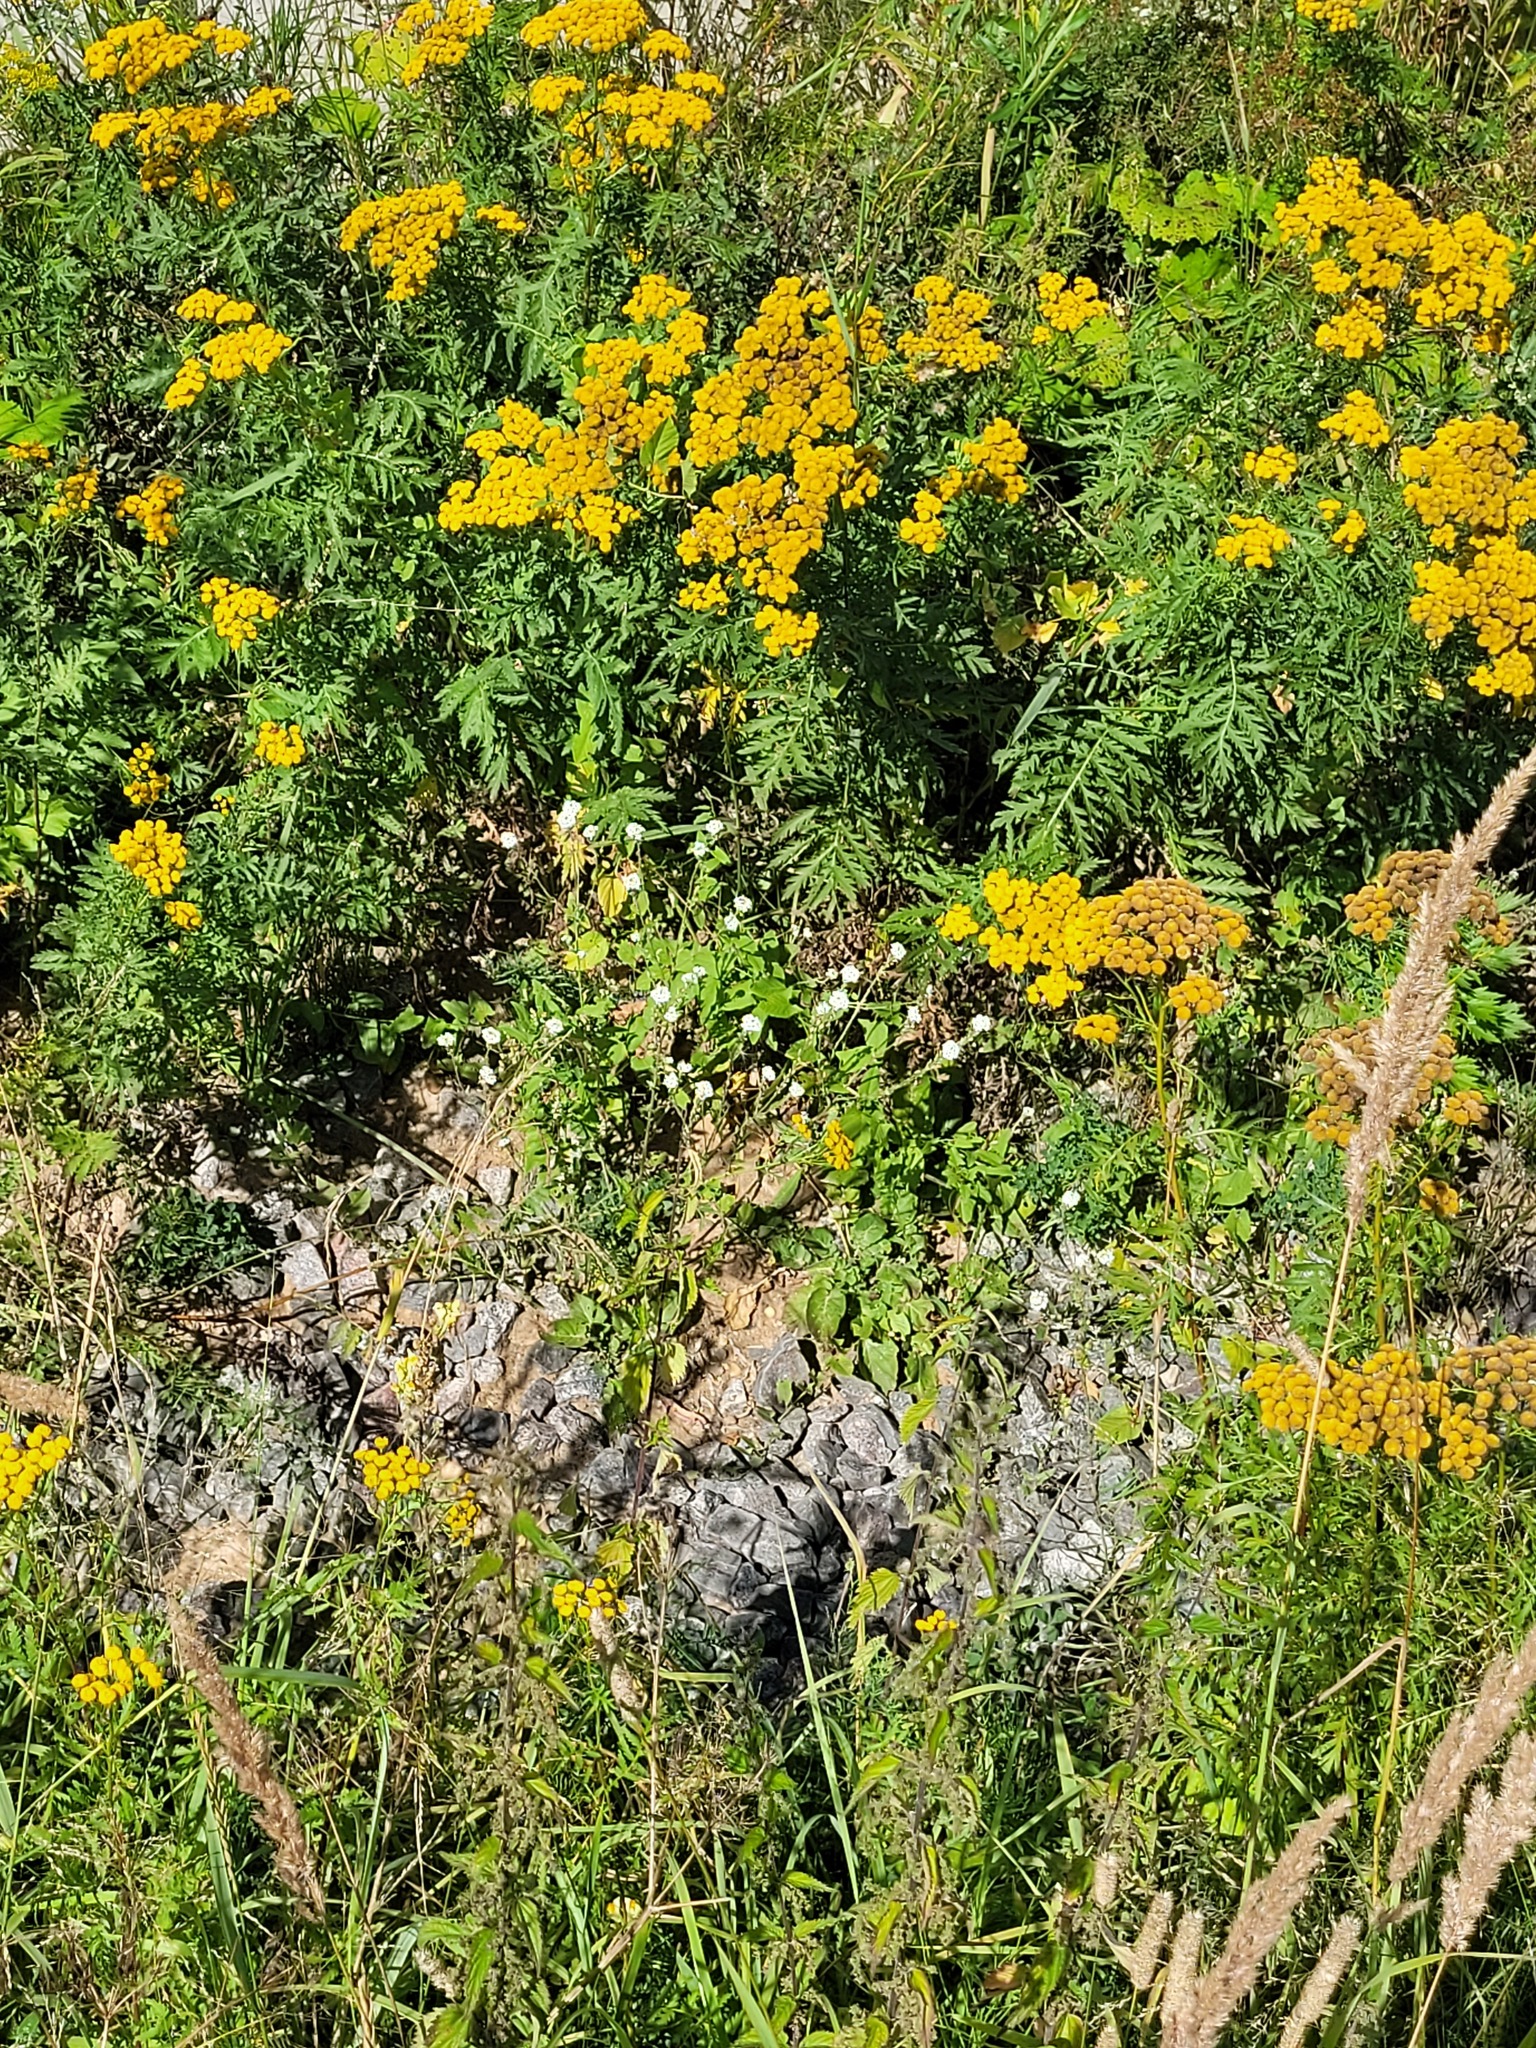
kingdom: Plantae
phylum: Tracheophyta
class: Magnoliopsida
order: Brassicales
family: Brassicaceae
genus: Berteroa
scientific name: Berteroa incana
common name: Hoary alison
